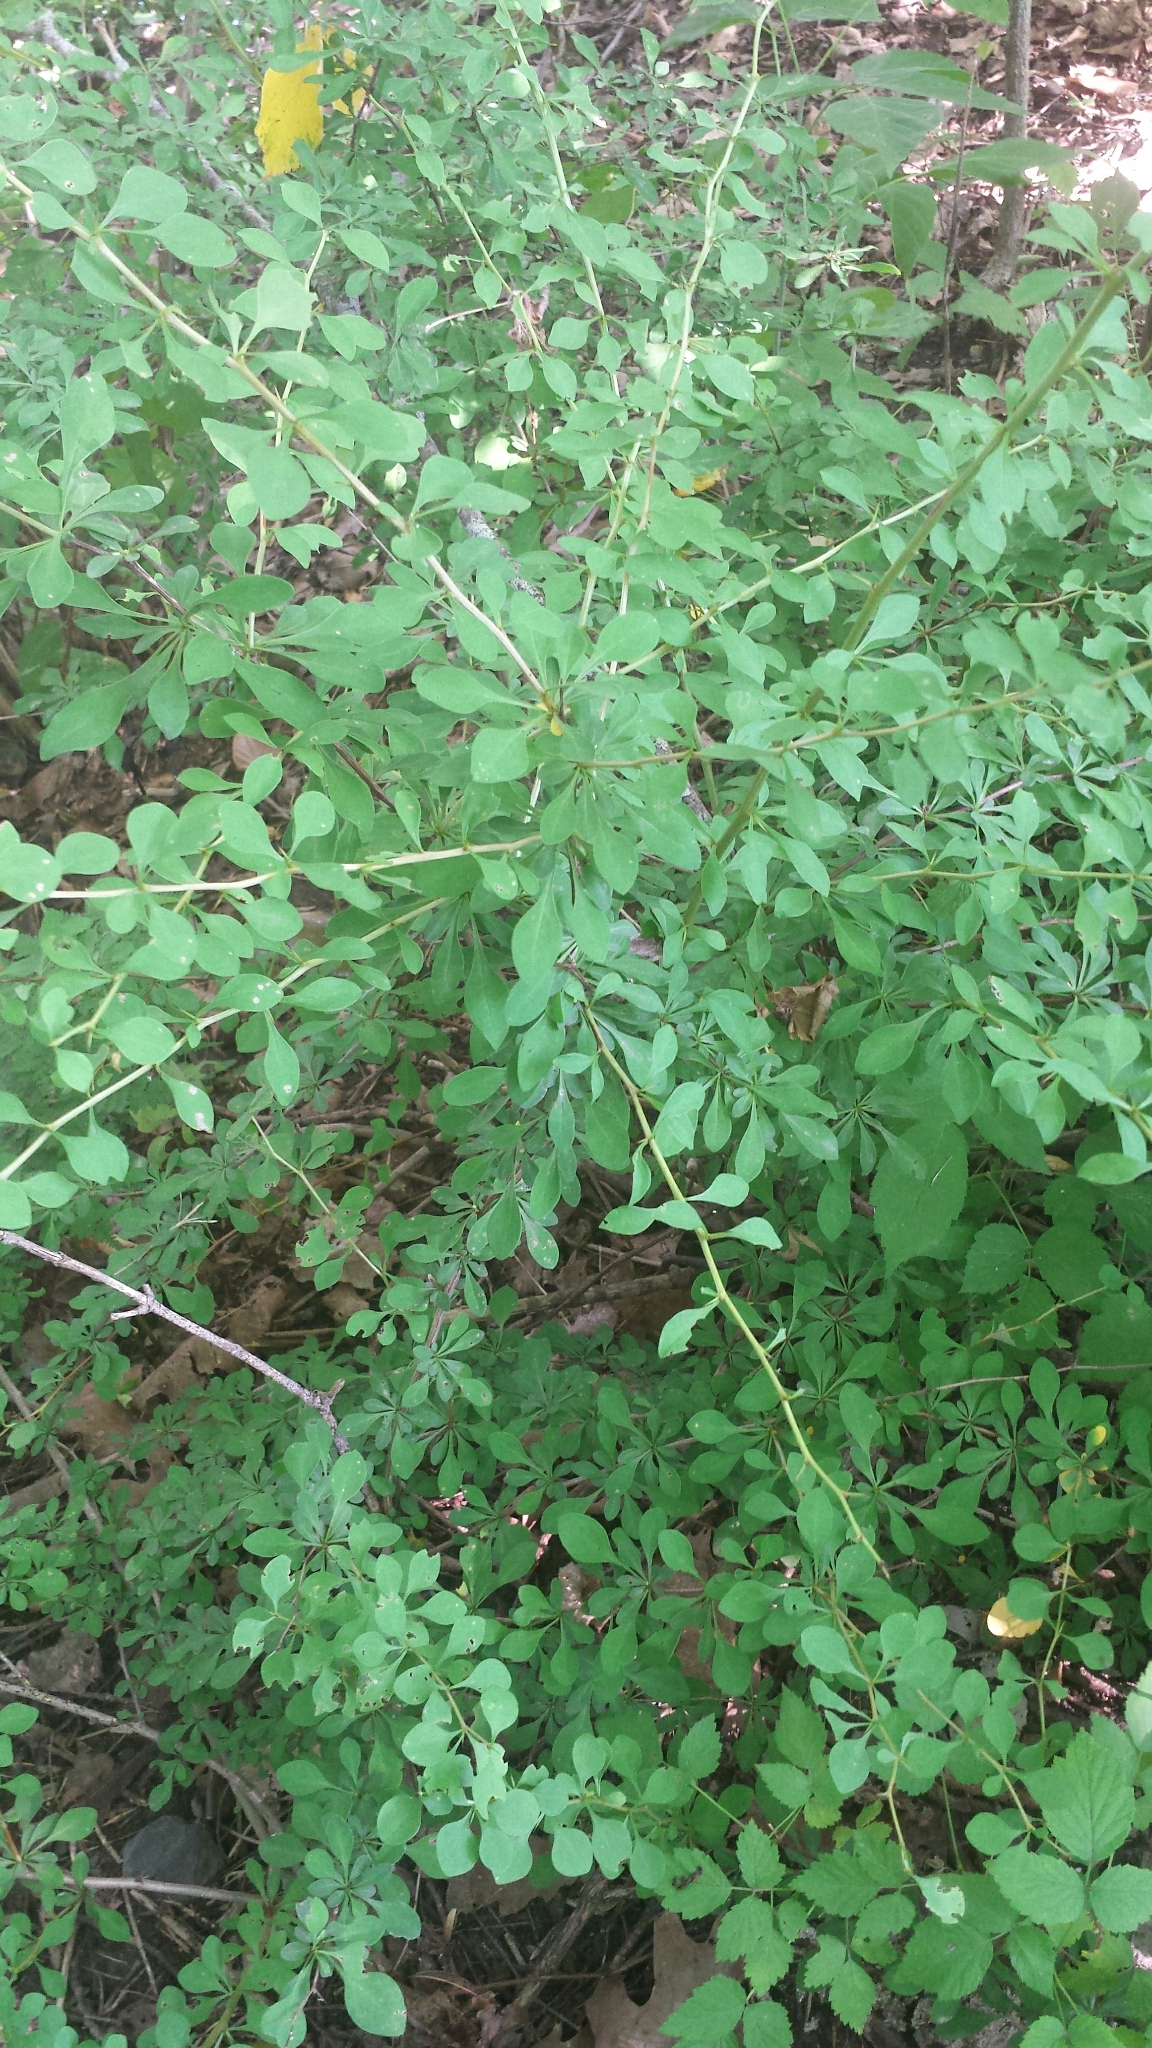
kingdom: Plantae
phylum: Tracheophyta
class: Magnoliopsida
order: Ranunculales
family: Berberidaceae
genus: Berberis
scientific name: Berberis thunbergii
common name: Japanese barberry
